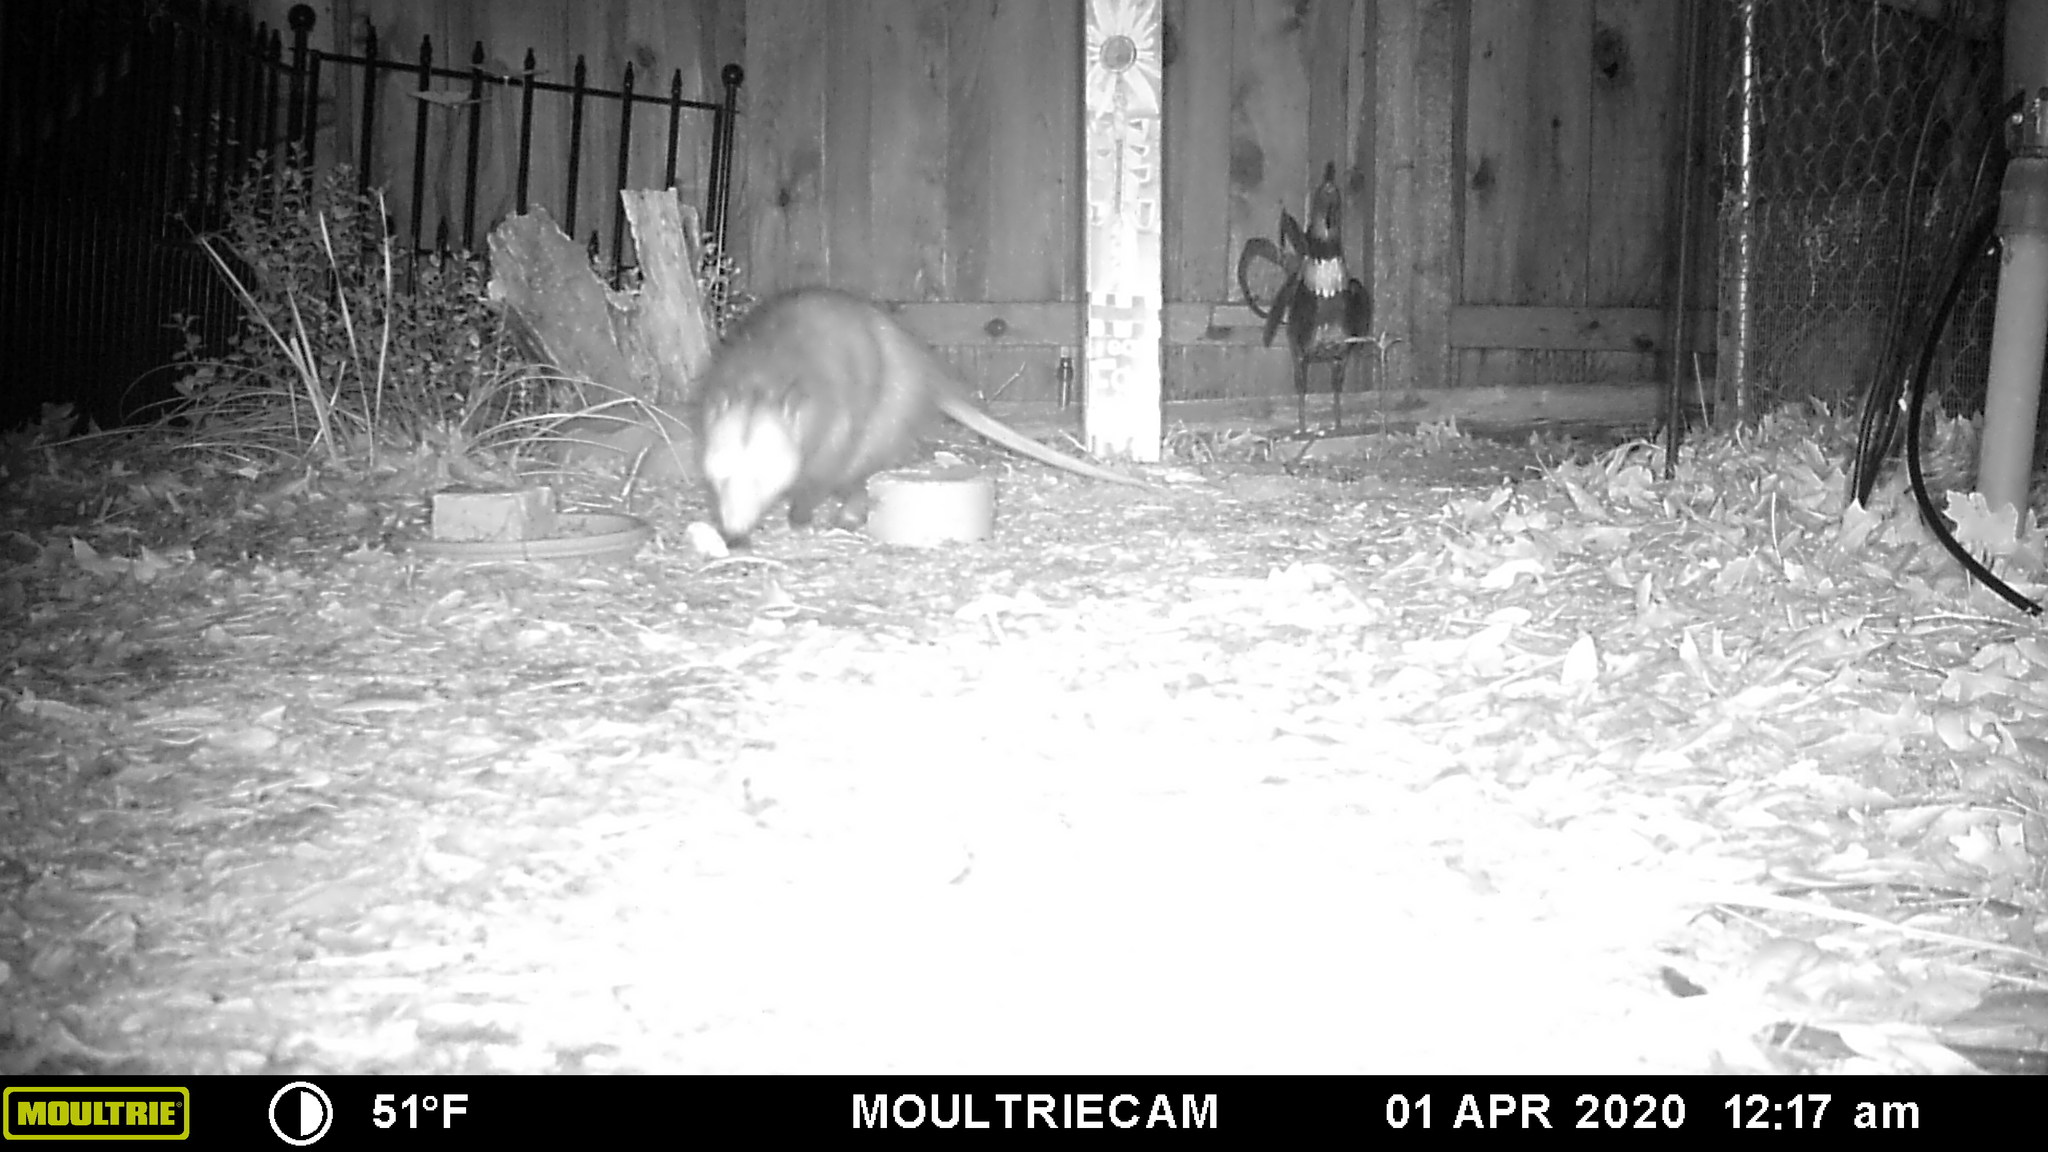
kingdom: Animalia
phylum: Chordata
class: Mammalia
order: Didelphimorphia
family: Didelphidae
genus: Didelphis
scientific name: Didelphis virginiana
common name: Virginia opossum
